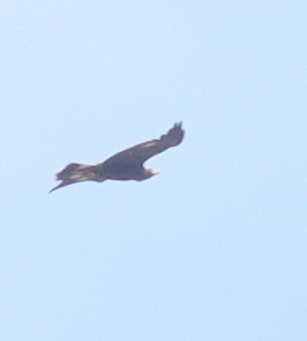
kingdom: Animalia
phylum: Chordata
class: Aves
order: Accipitriformes
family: Accipitridae
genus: Aquila
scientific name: Aquila chrysaetos
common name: Golden eagle
